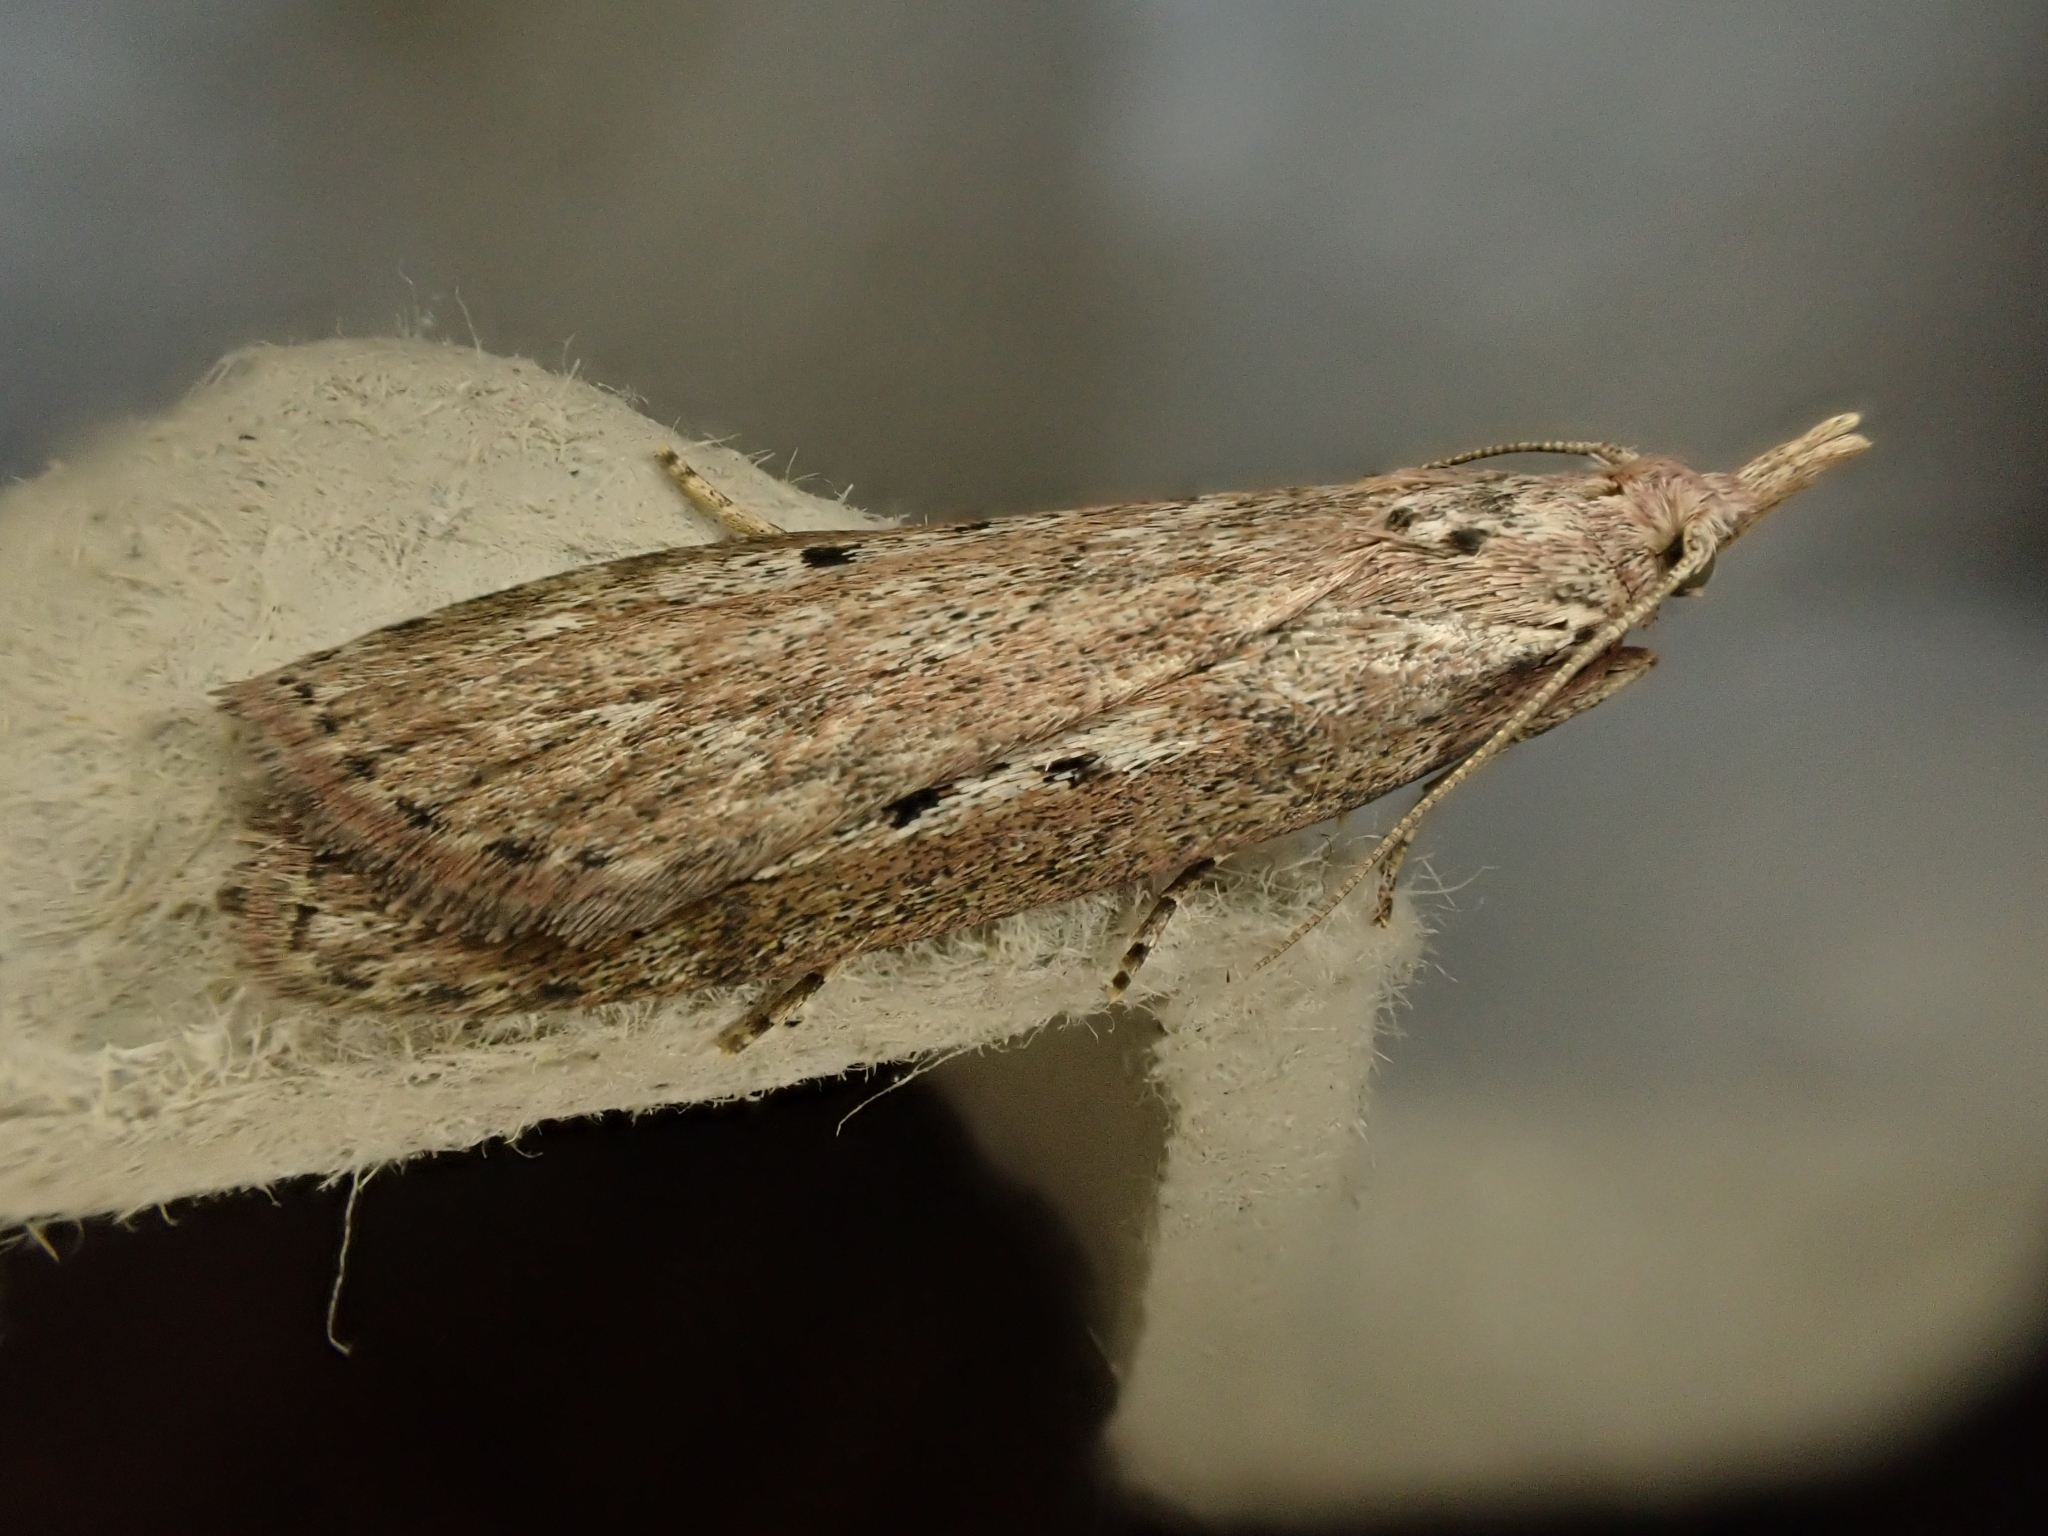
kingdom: Animalia
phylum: Arthropoda
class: Insecta
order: Lepidoptera
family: Pyralidae
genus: Aphomia
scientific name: Aphomia sociella
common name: Bee moth
